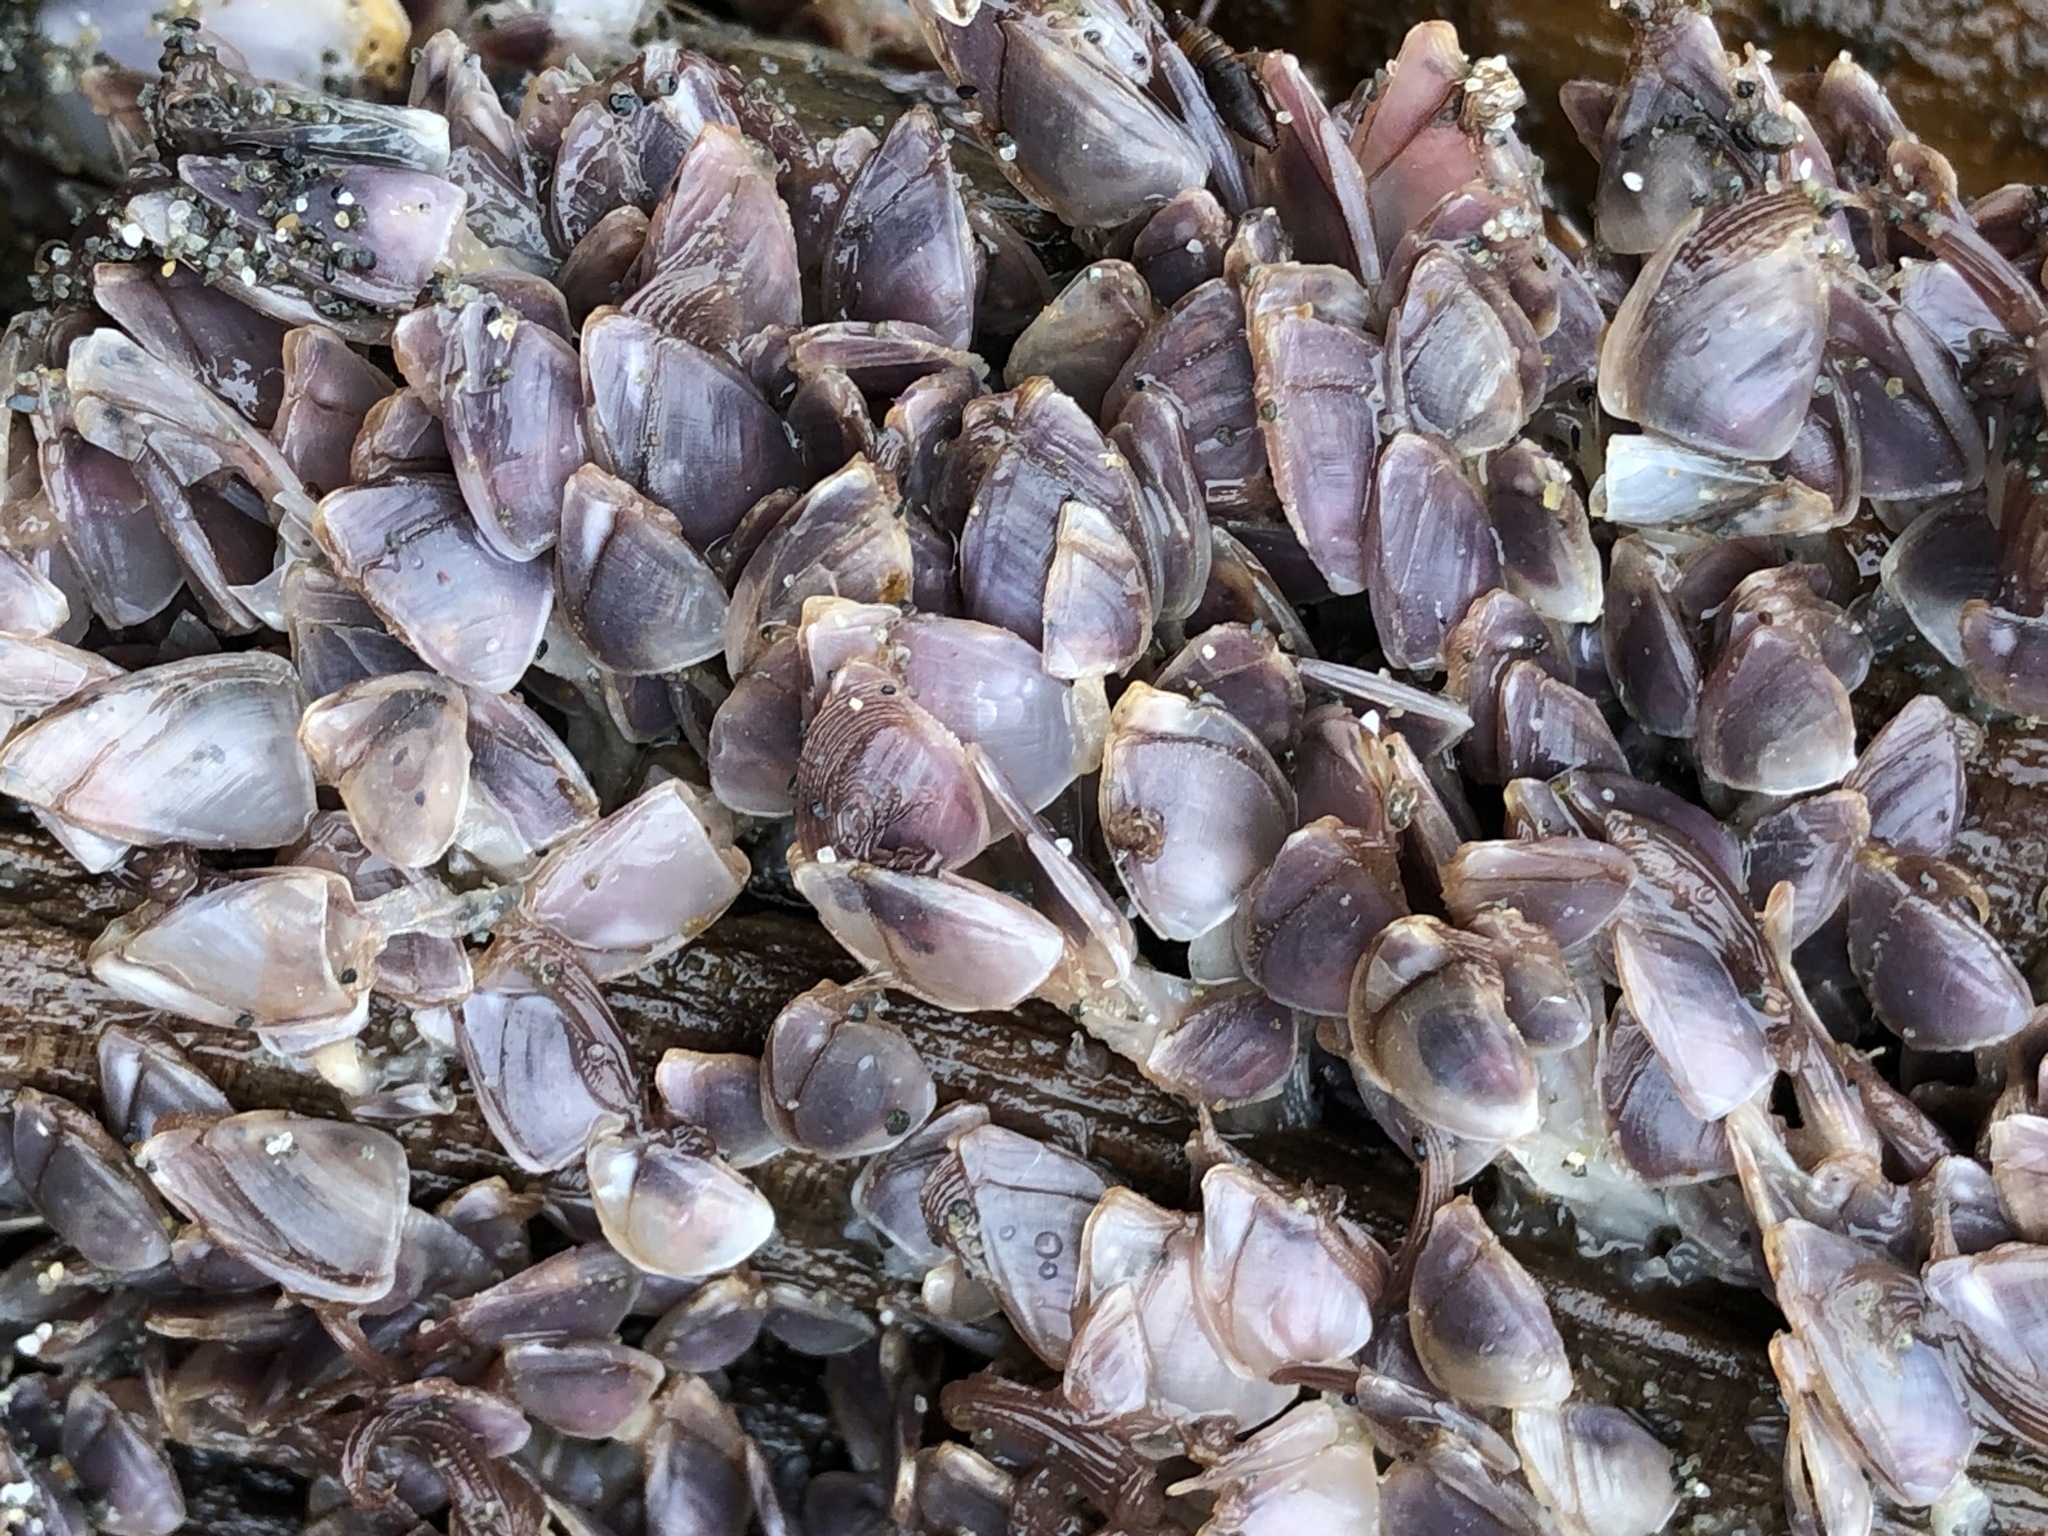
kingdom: Animalia
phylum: Arthropoda
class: Maxillopoda
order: Pedunculata
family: Lepadidae
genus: Lepas
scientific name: Lepas pacifica
